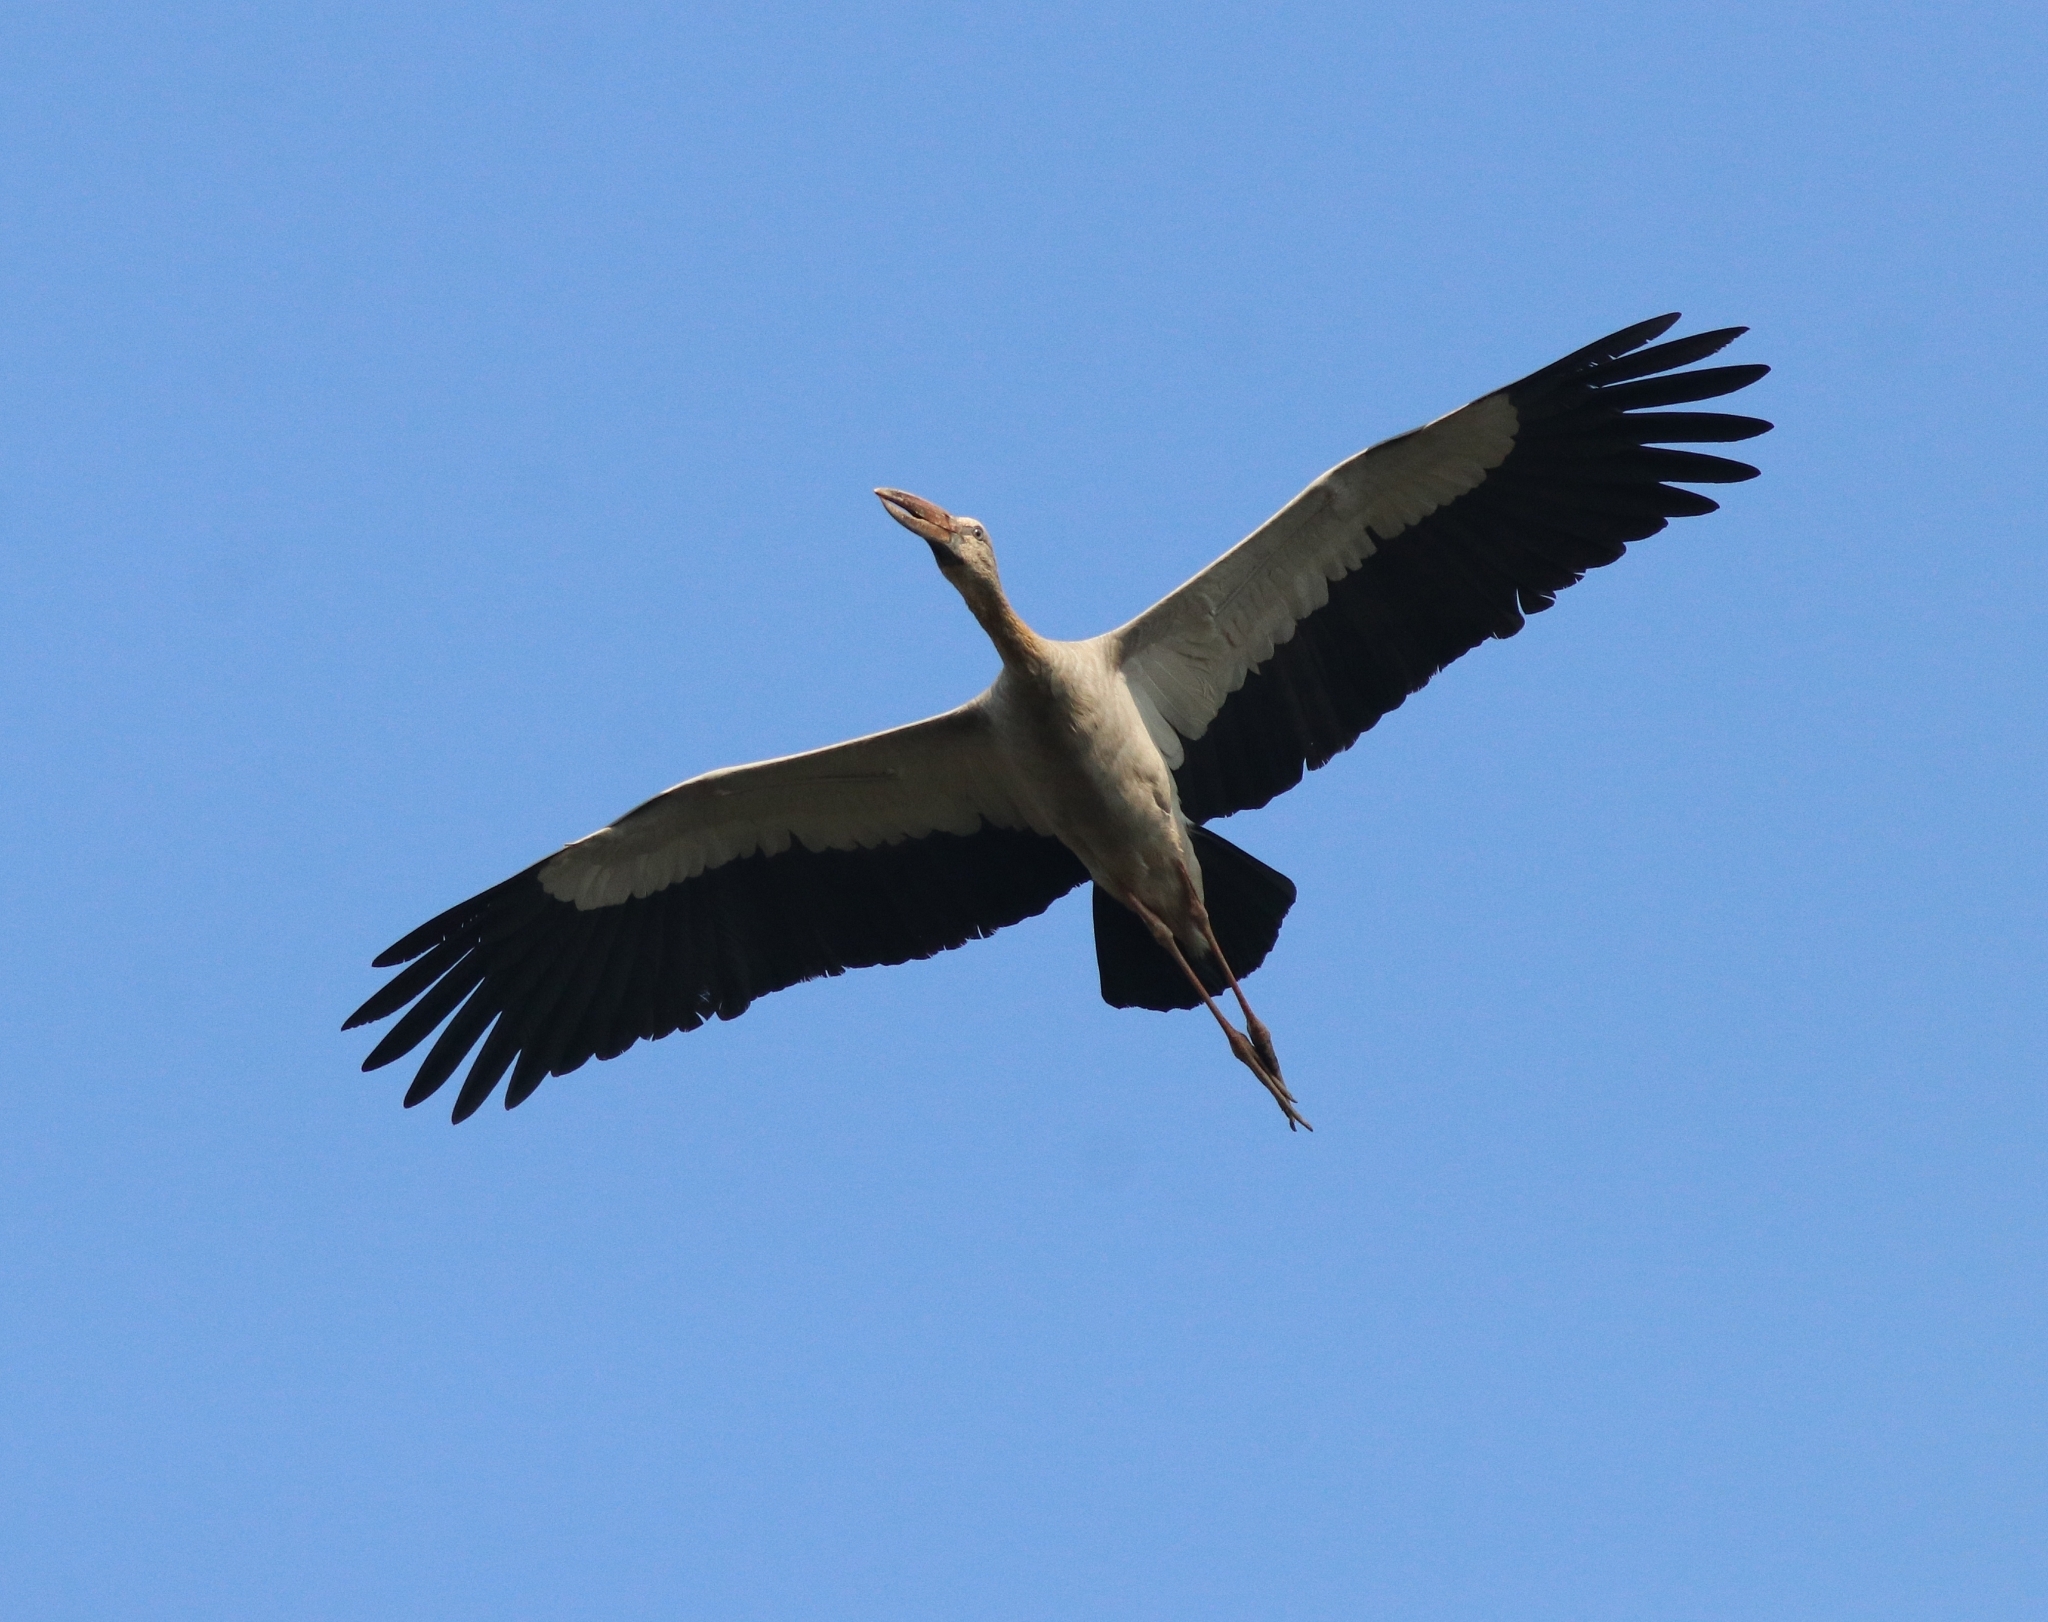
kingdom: Animalia
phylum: Chordata
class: Aves
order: Ciconiiformes
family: Ciconiidae
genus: Anastomus
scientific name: Anastomus oscitans
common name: Asian openbill
